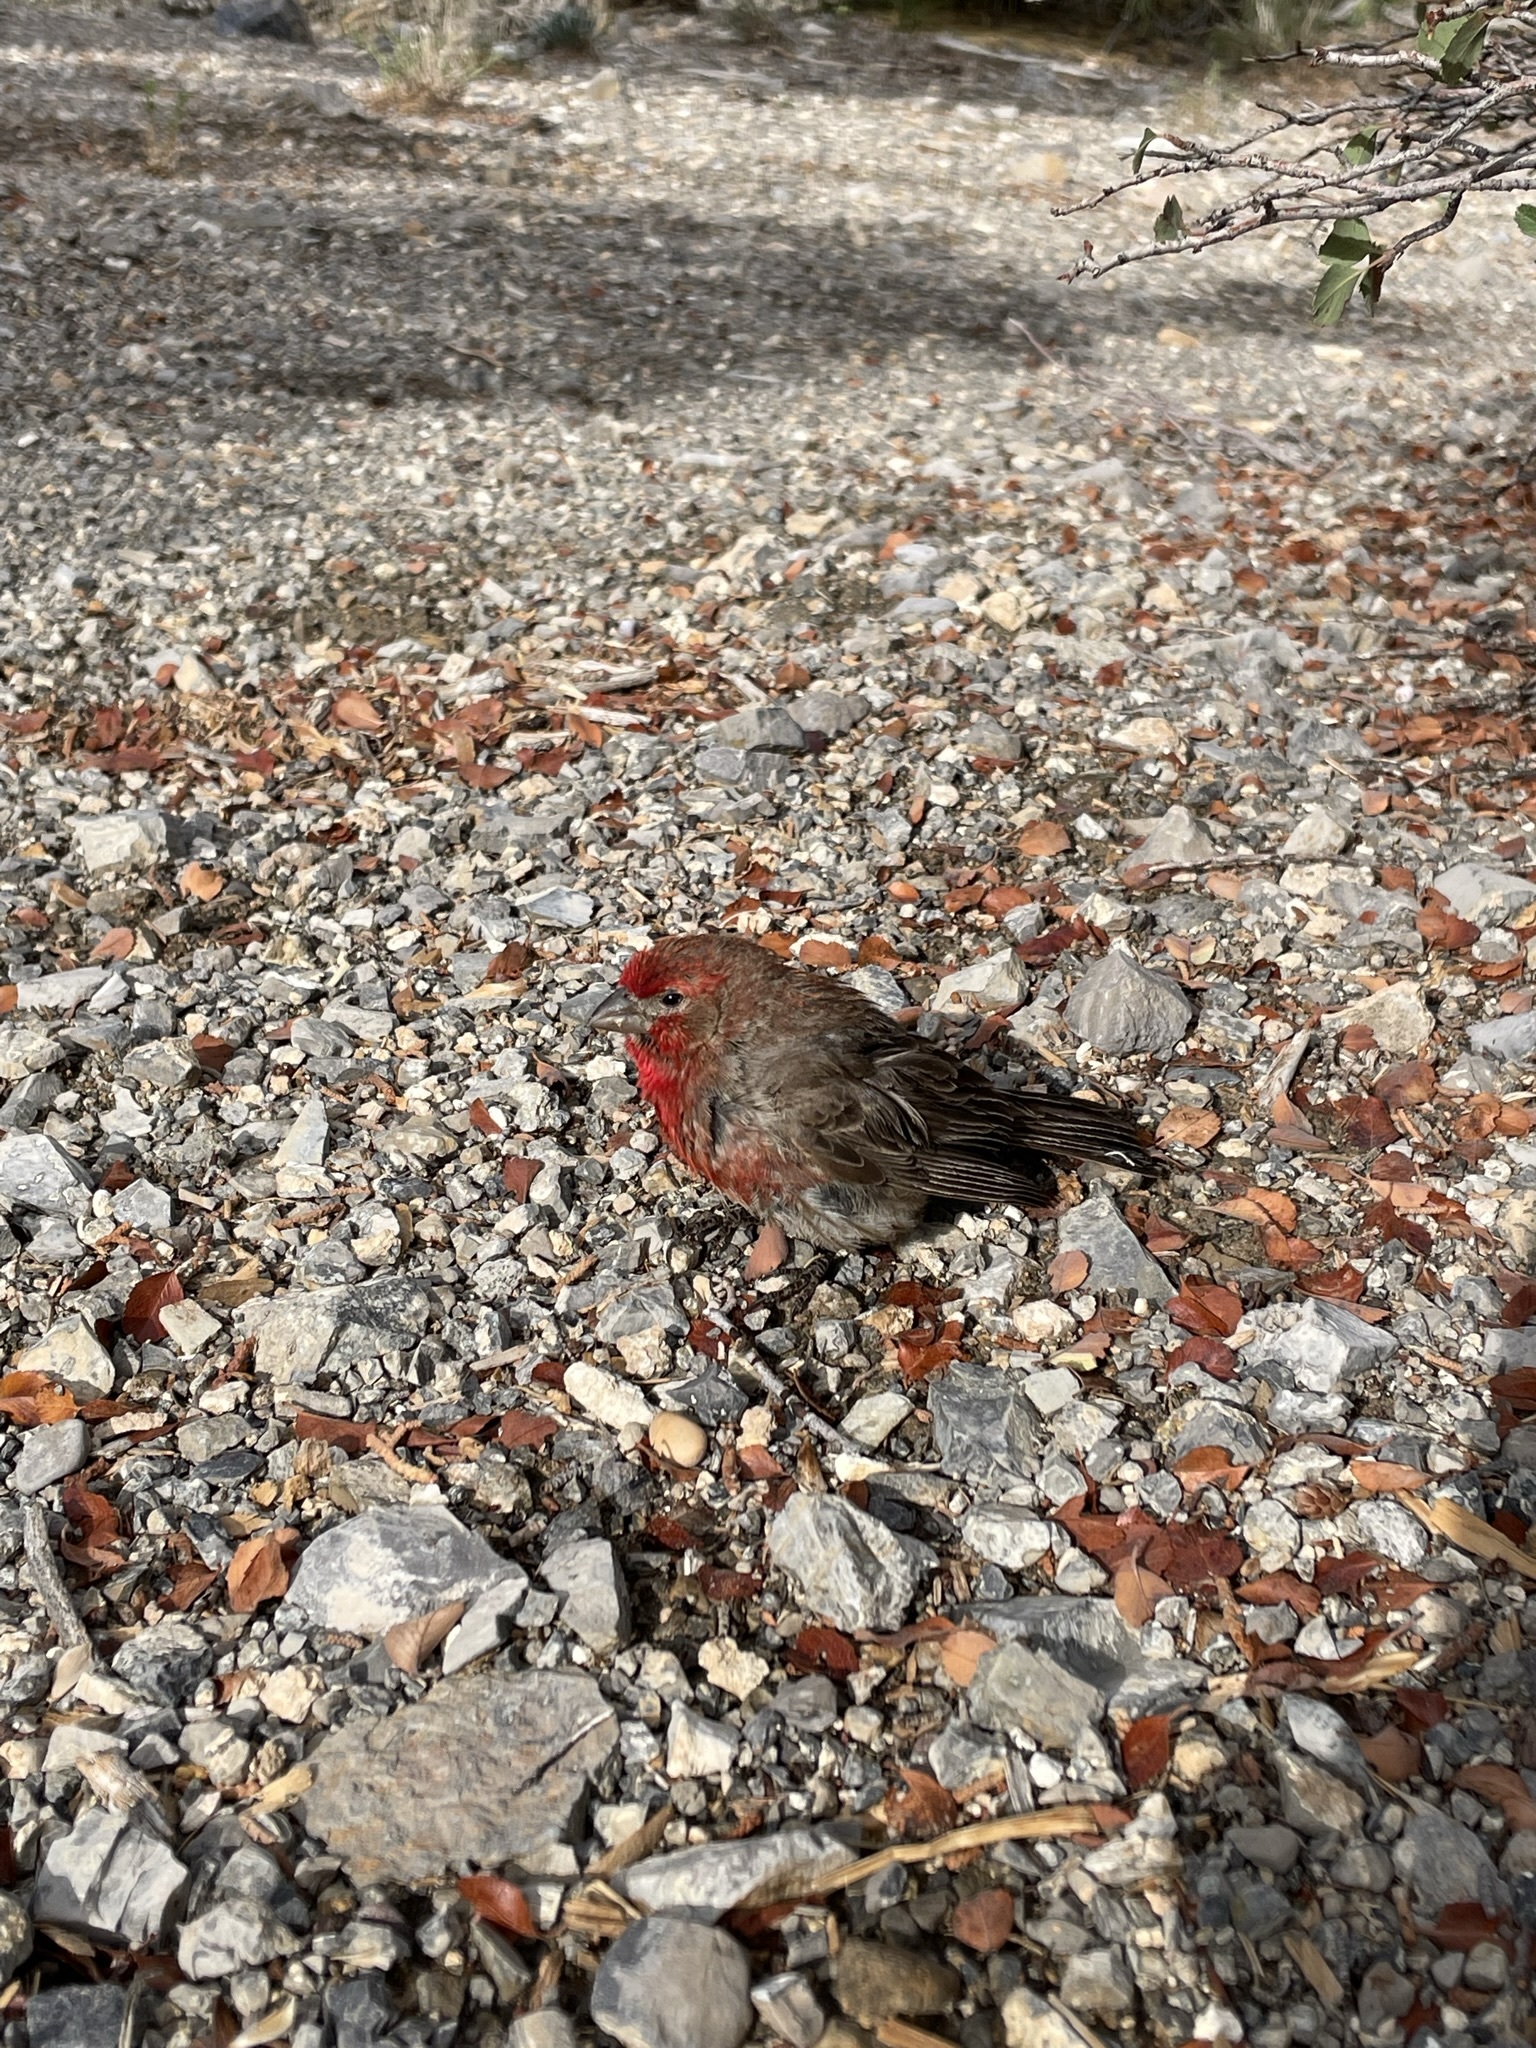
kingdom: Animalia
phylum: Chordata
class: Aves
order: Passeriformes
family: Fringillidae
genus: Haemorhous
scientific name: Haemorhous mexicanus
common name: House finch
